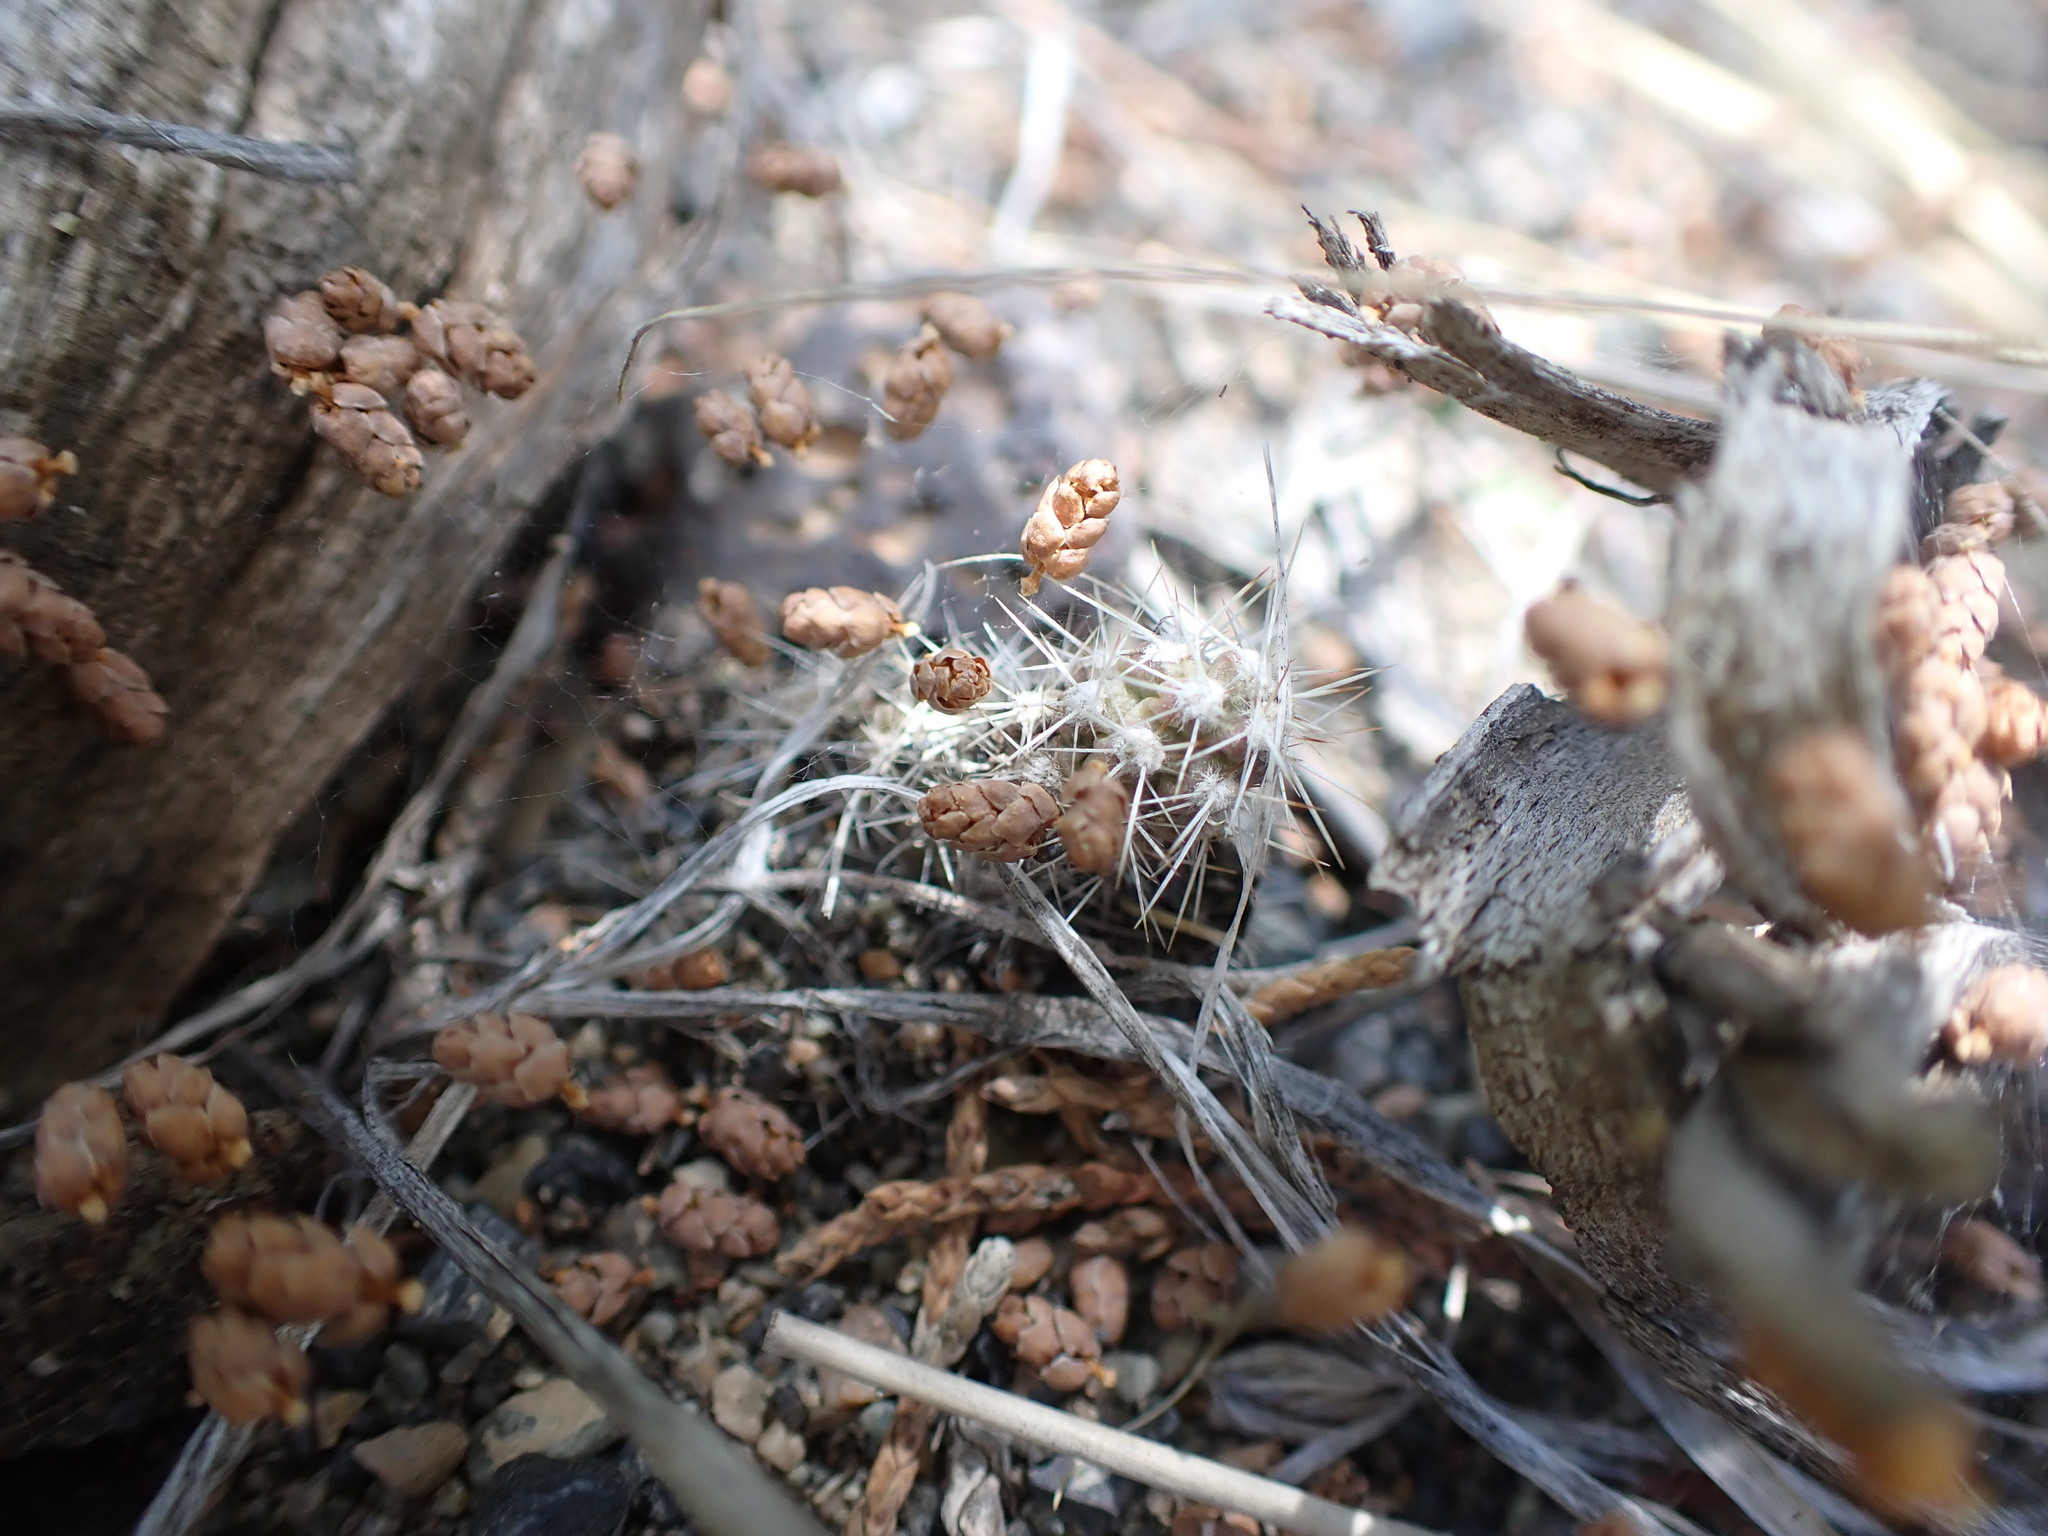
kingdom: Plantae
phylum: Tracheophyta
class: Magnoliopsida
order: Caryophyllales
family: Cactaceae
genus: Opuntia
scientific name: Opuntia fragilis
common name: Brittle cactus
